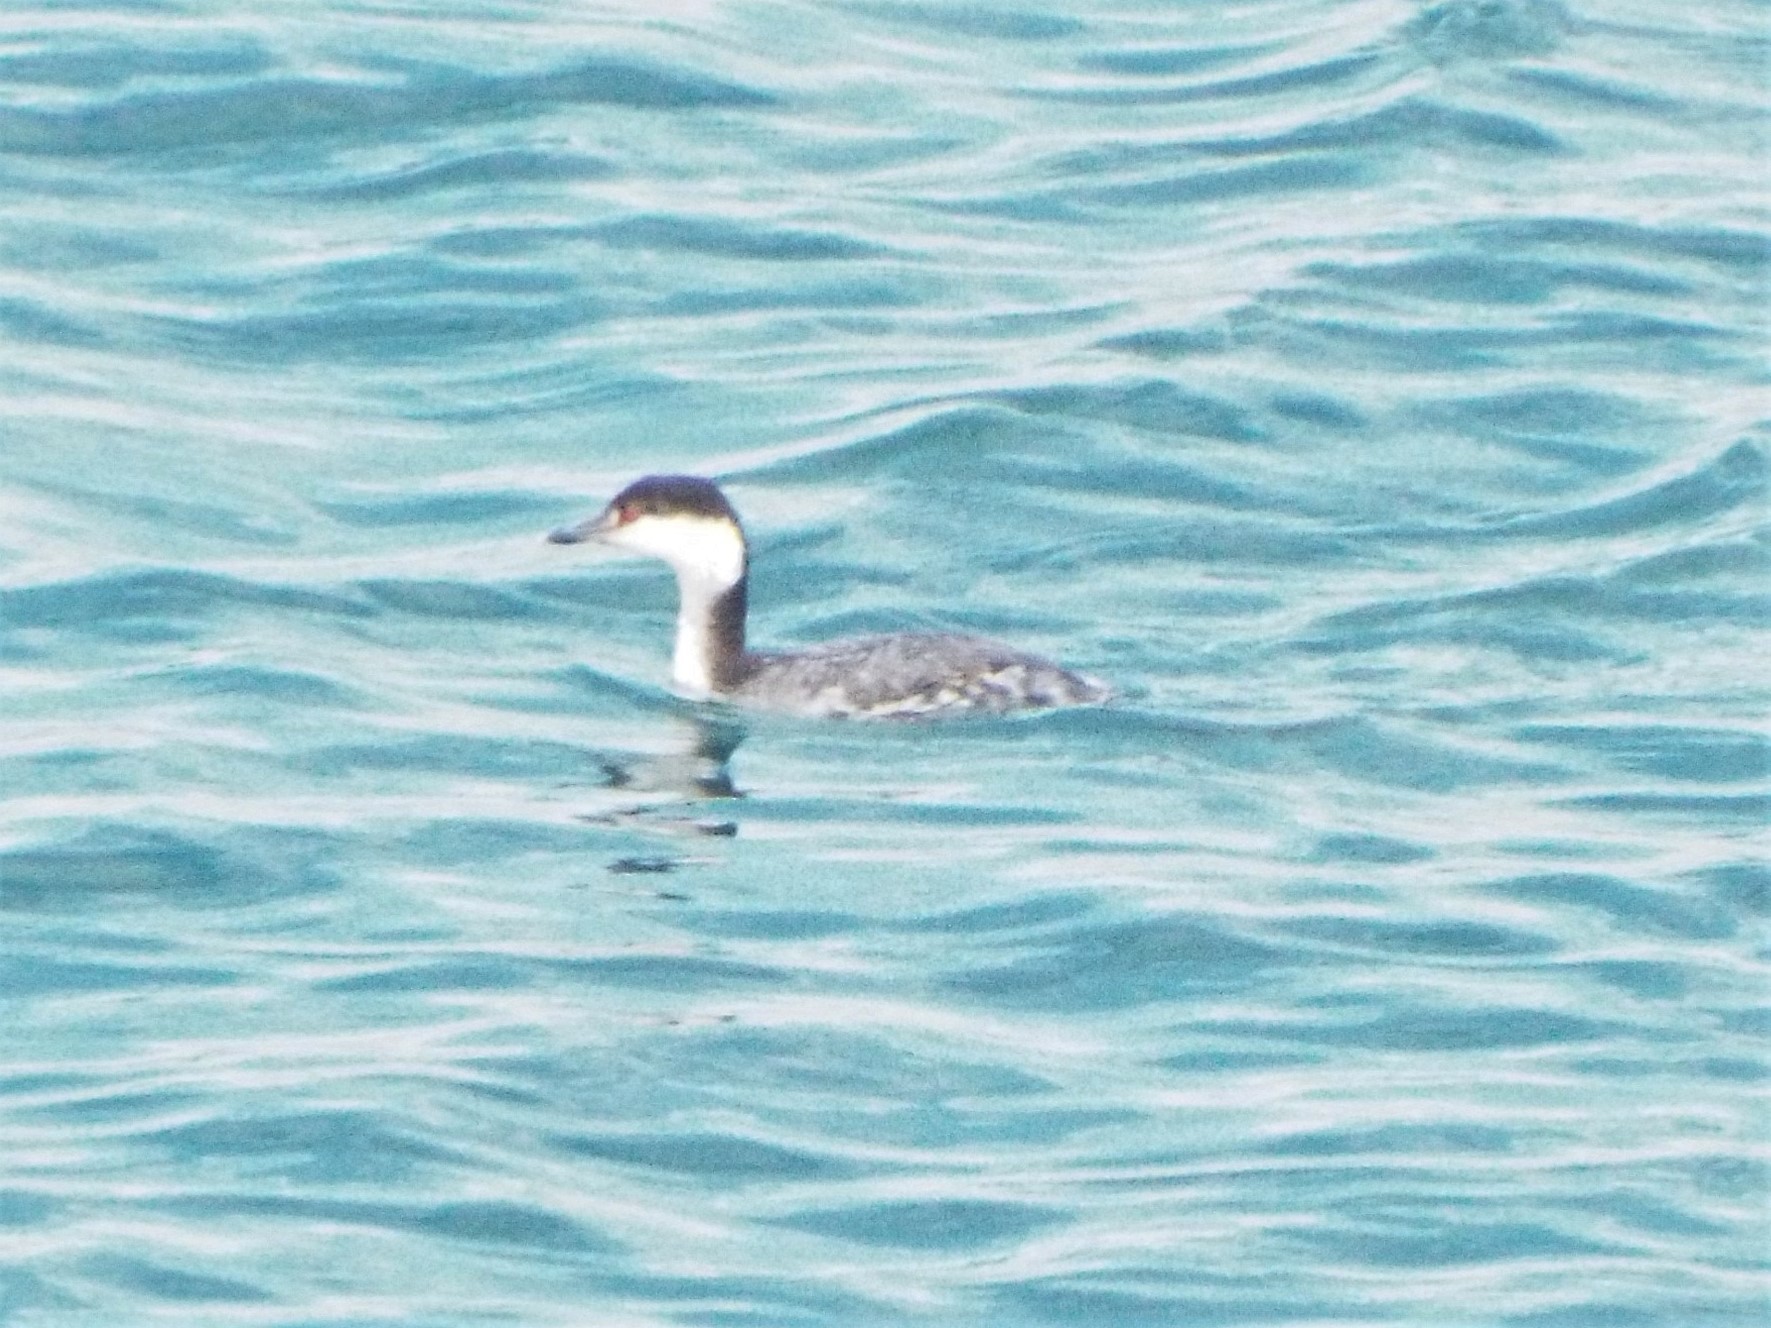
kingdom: Animalia
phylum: Chordata
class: Aves
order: Podicipediformes
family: Podicipedidae
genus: Podiceps
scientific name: Podiceps auritus
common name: Horned grebe
